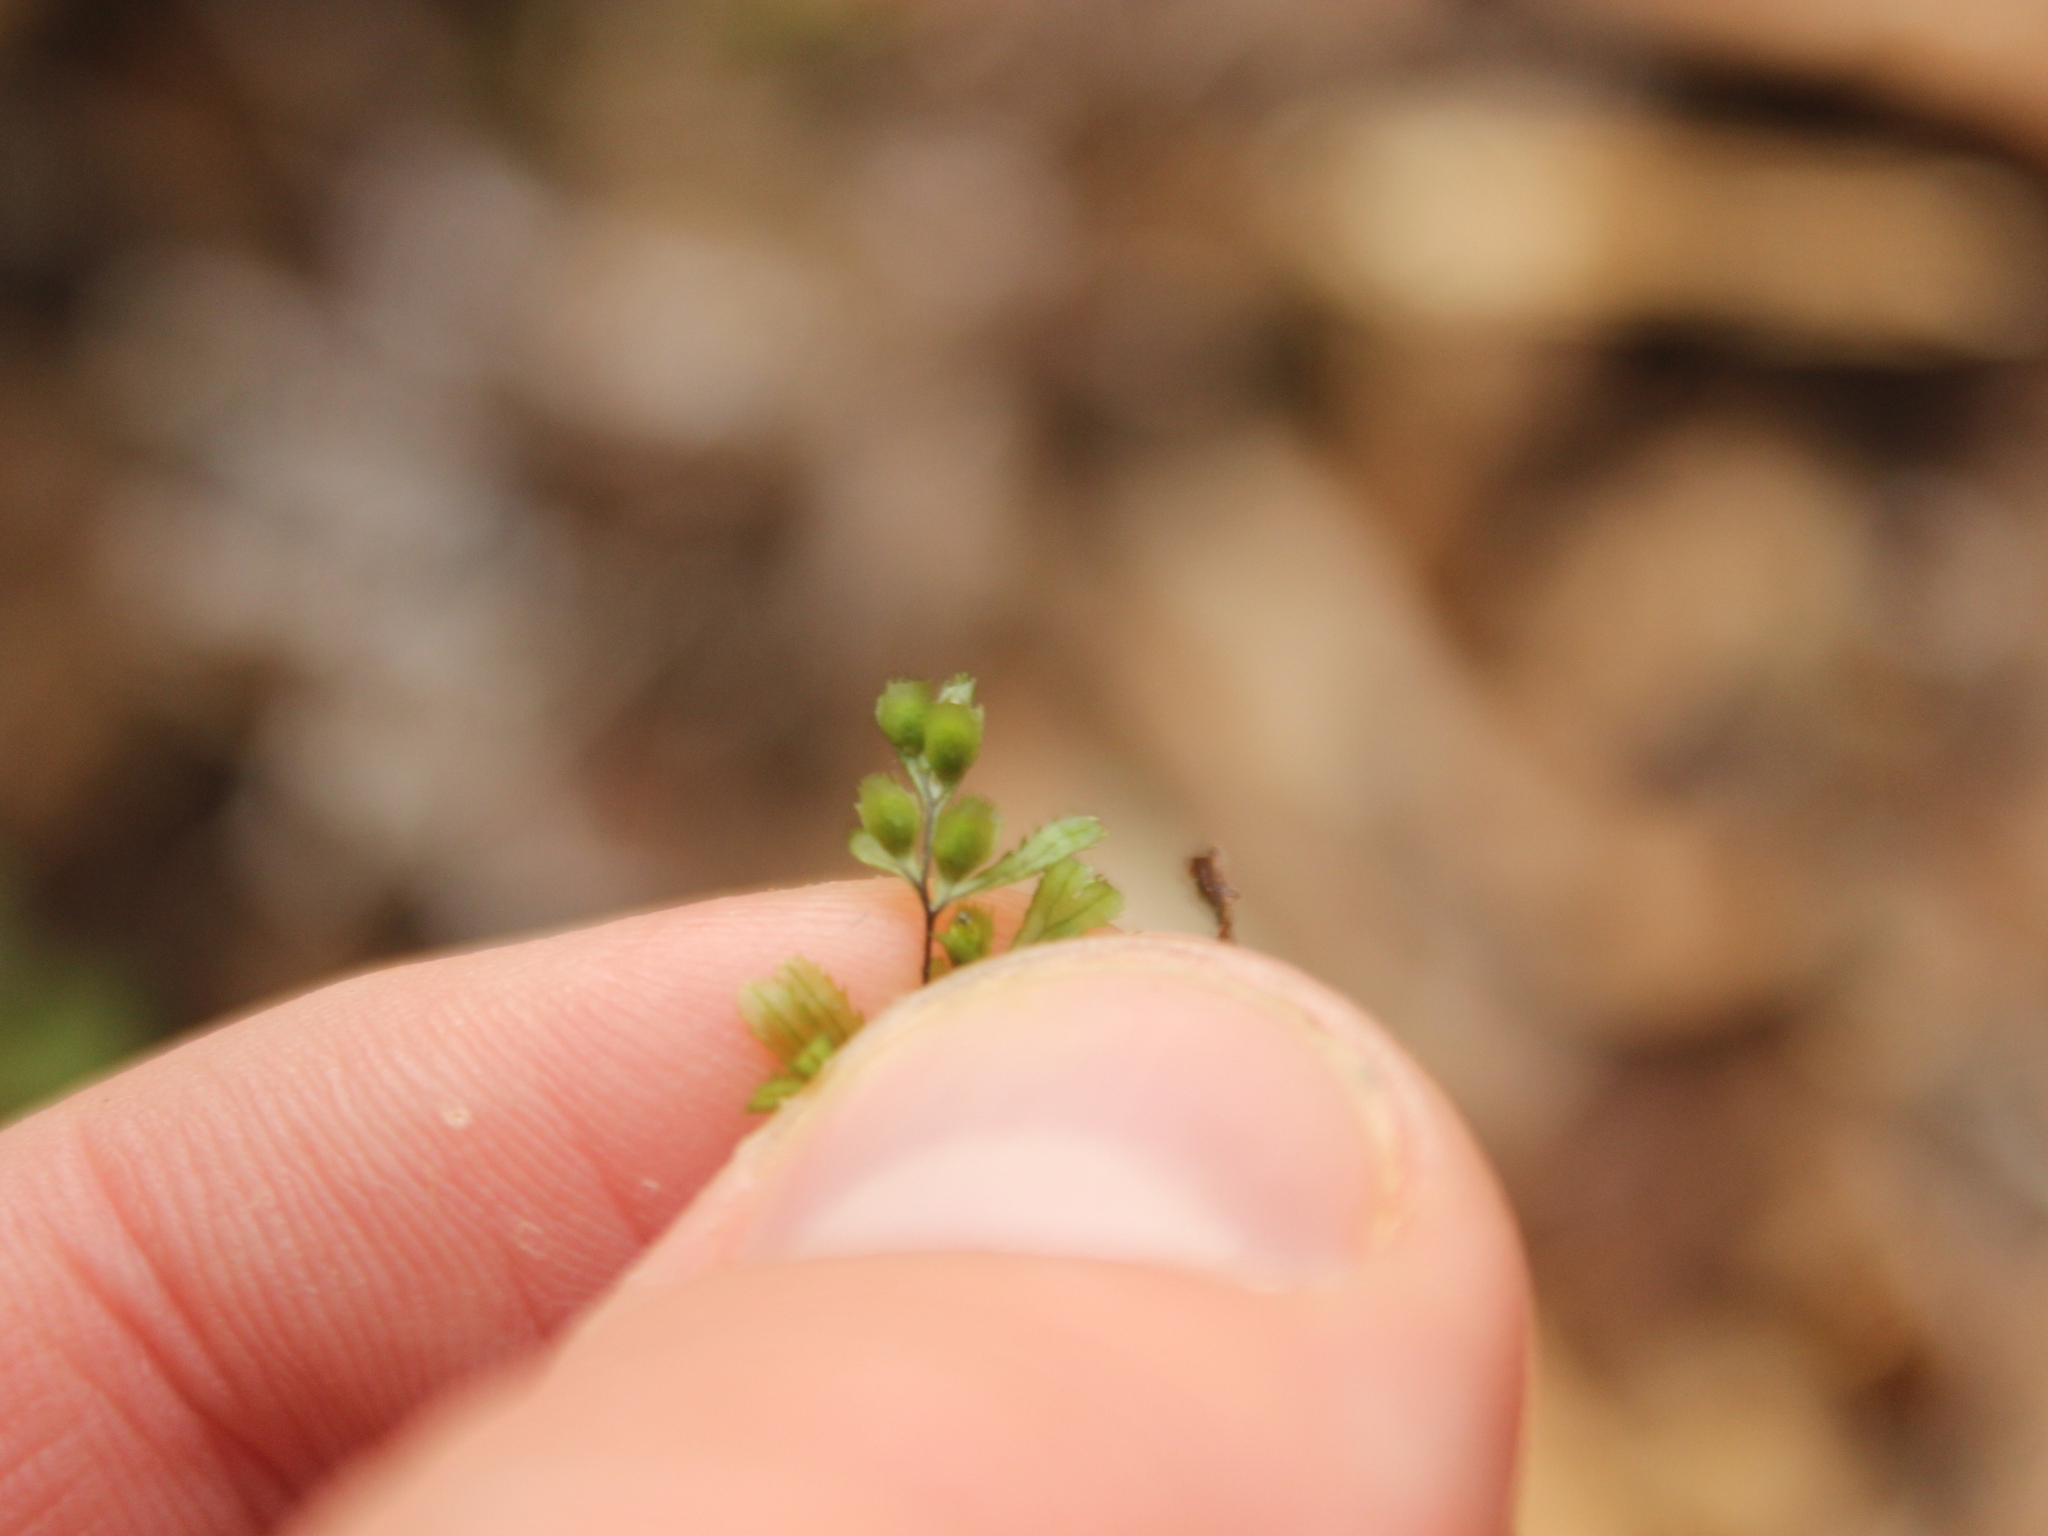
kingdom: Plantae
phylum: Tracheophyta
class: Polypodiopsida
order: Hymenophyllales
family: Hymenophyllaceae
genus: Hymenophyllum
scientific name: Hymenophyllum revolutum
